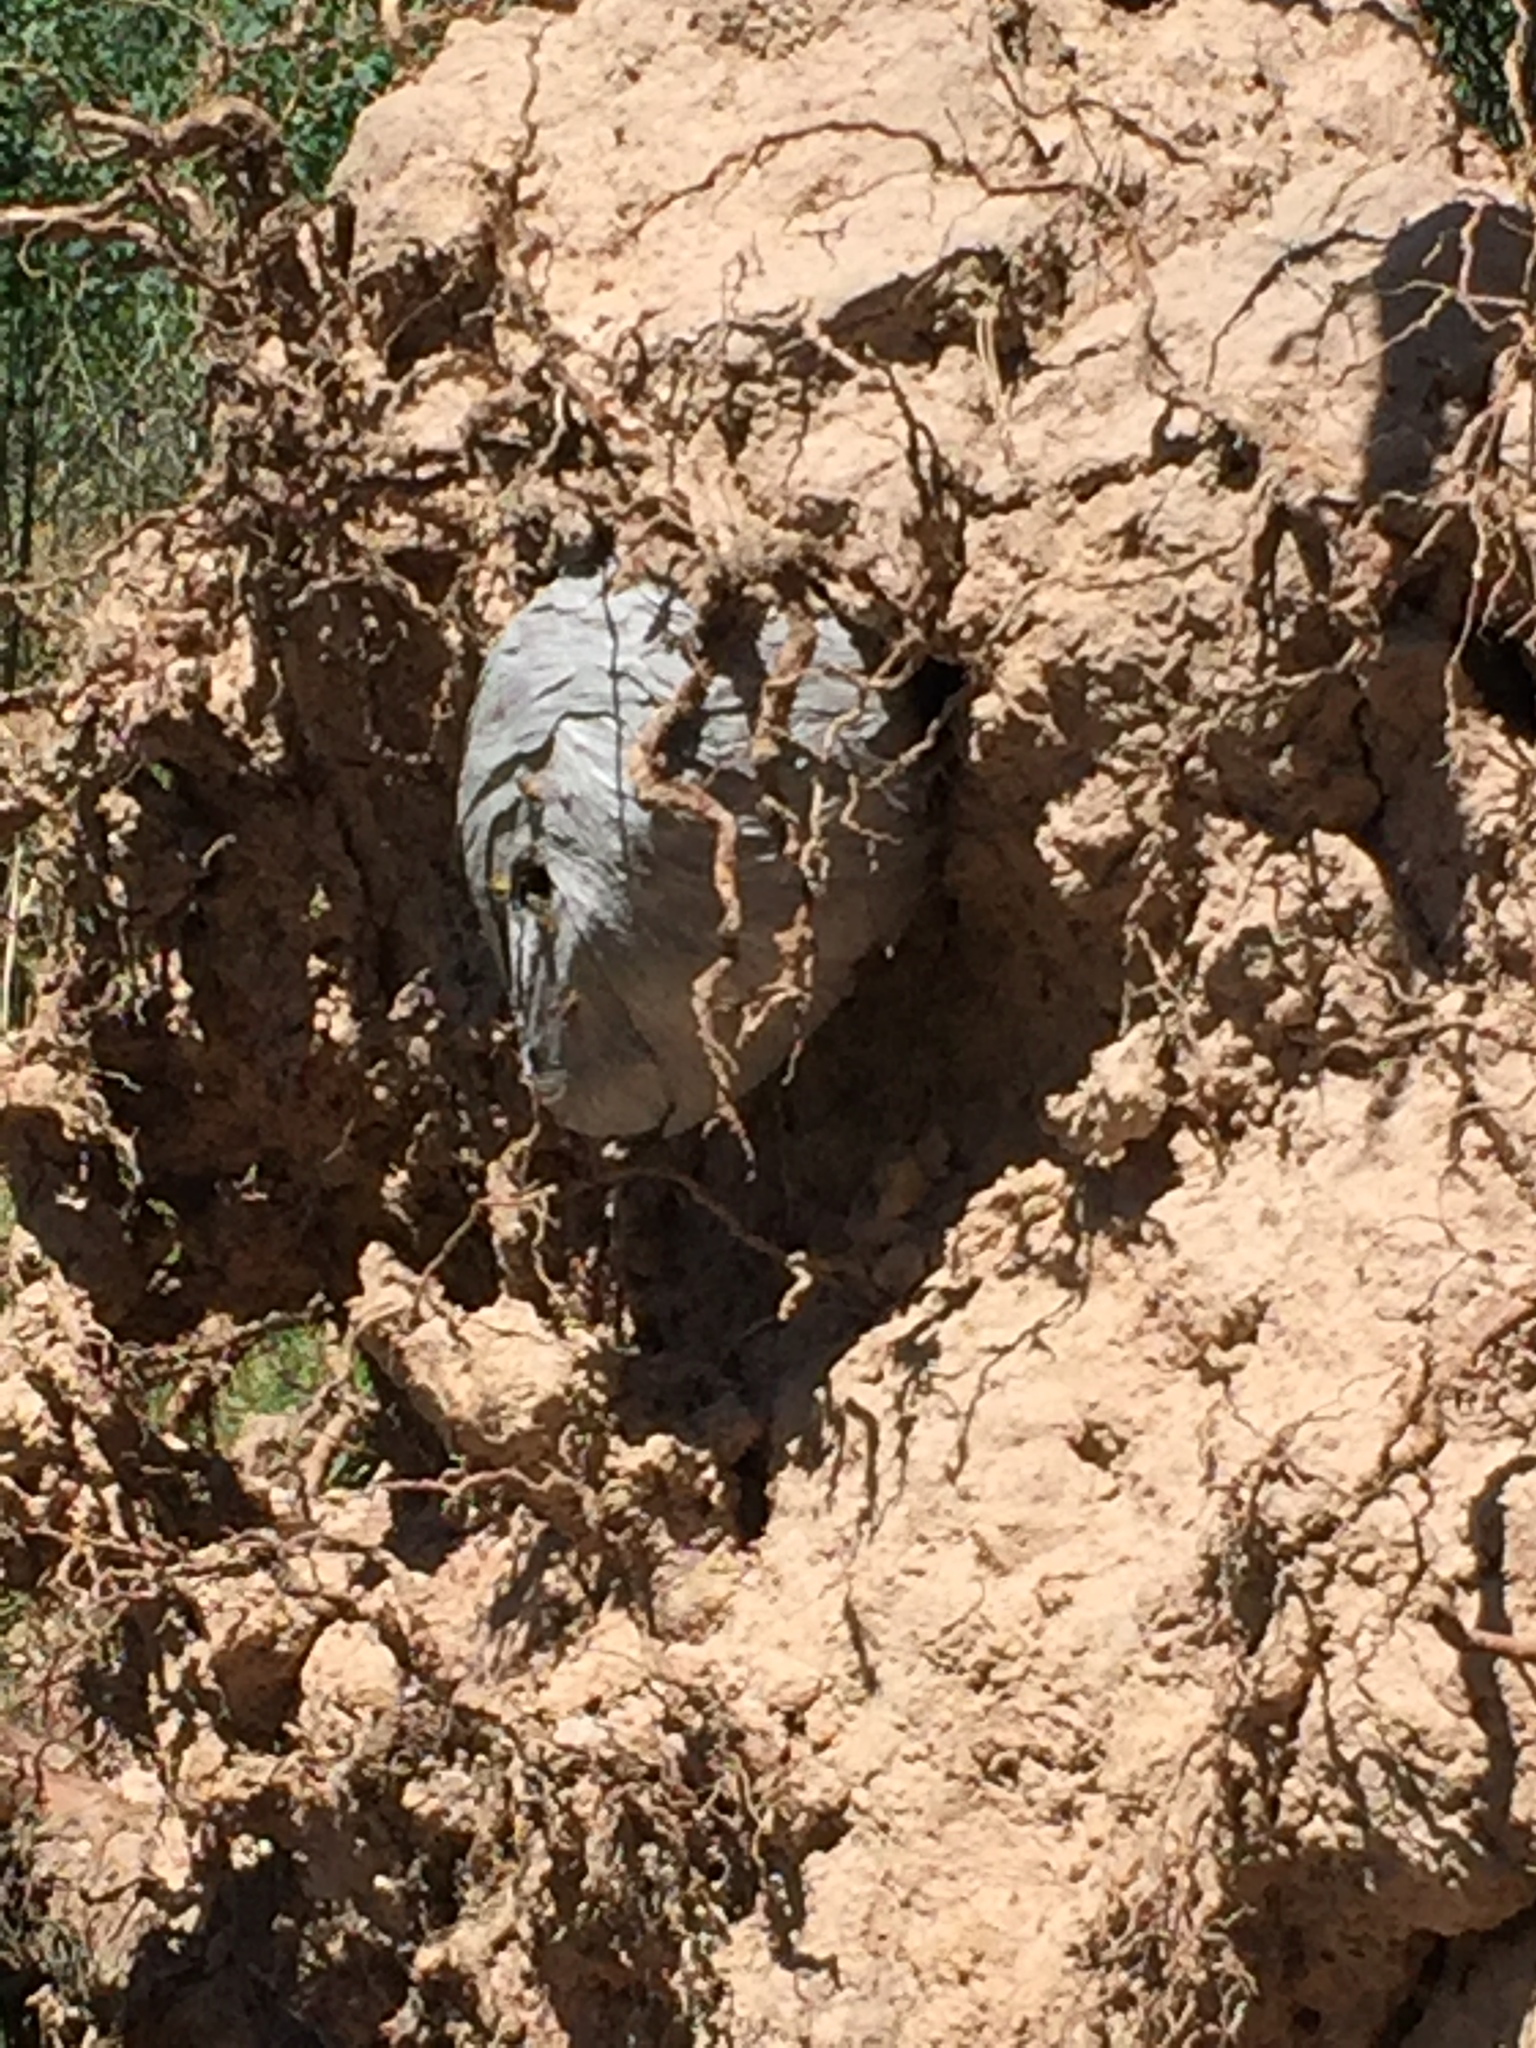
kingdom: Animalia
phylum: Arthropoda
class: Insecta
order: Hymenoptera
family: Vespidae
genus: Dolichovespula
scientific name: Dolichovespula arenaria
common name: Aerial yellowjacket
